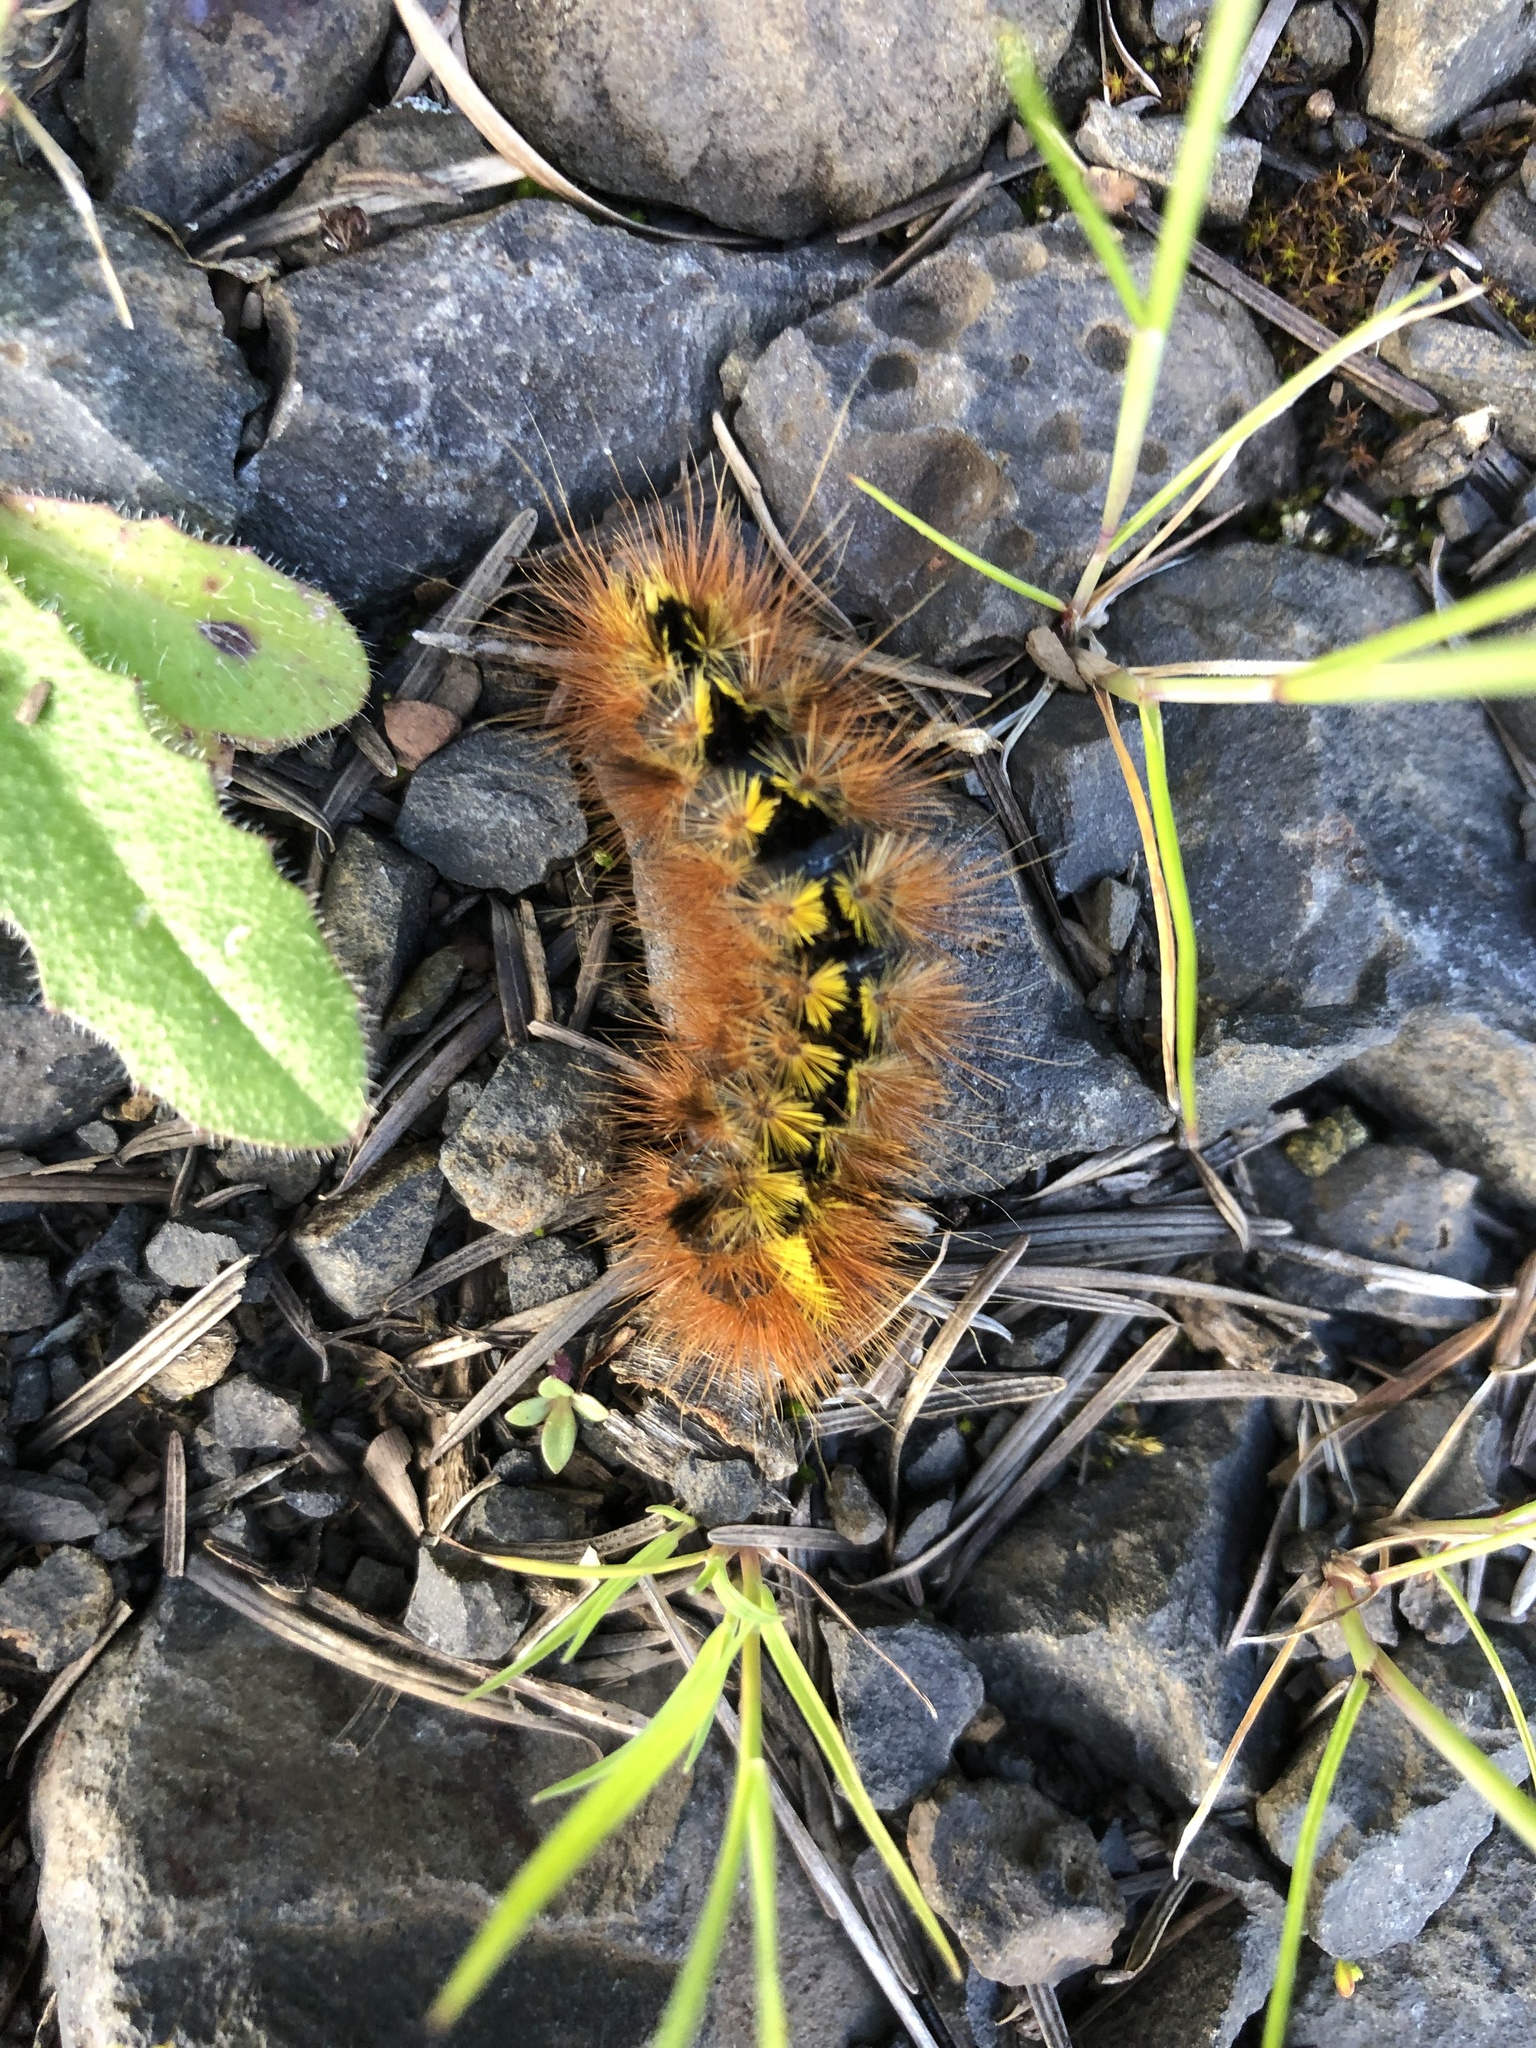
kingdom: Animalia
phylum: Arthropoda
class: Insecta
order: Lepidoptera
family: Erebidae
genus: Lophocampa
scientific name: Lophocampa argentata
